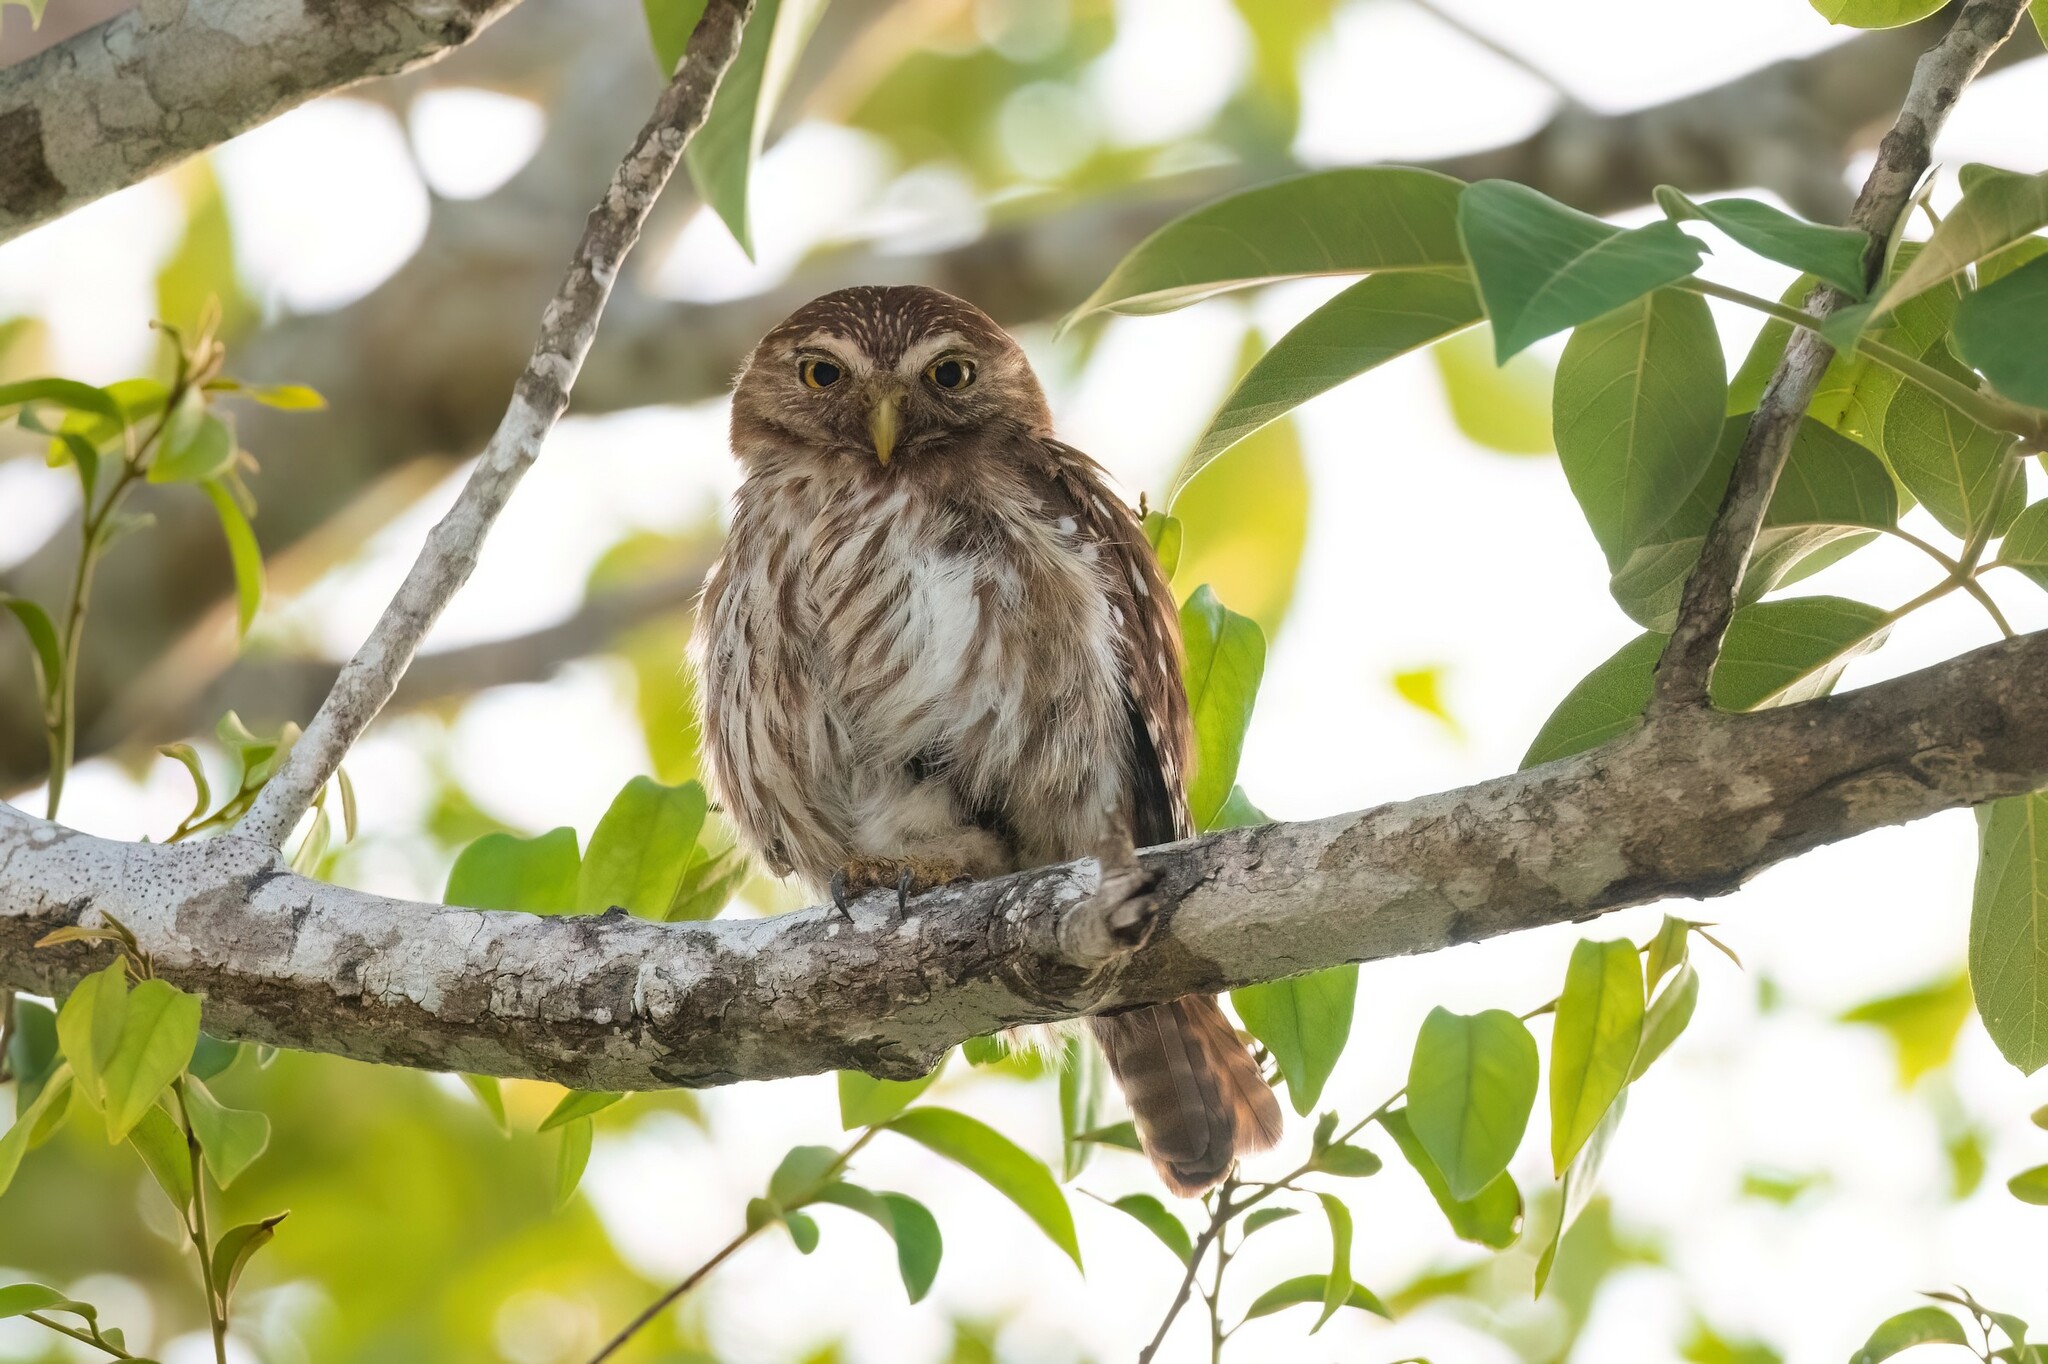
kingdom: Animalia
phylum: Chordata
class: Aves
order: Strigiformes
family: Strigidae
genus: Glaucidium
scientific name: Glaucidium brasilianum
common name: Ferruginous pygmy-owl
